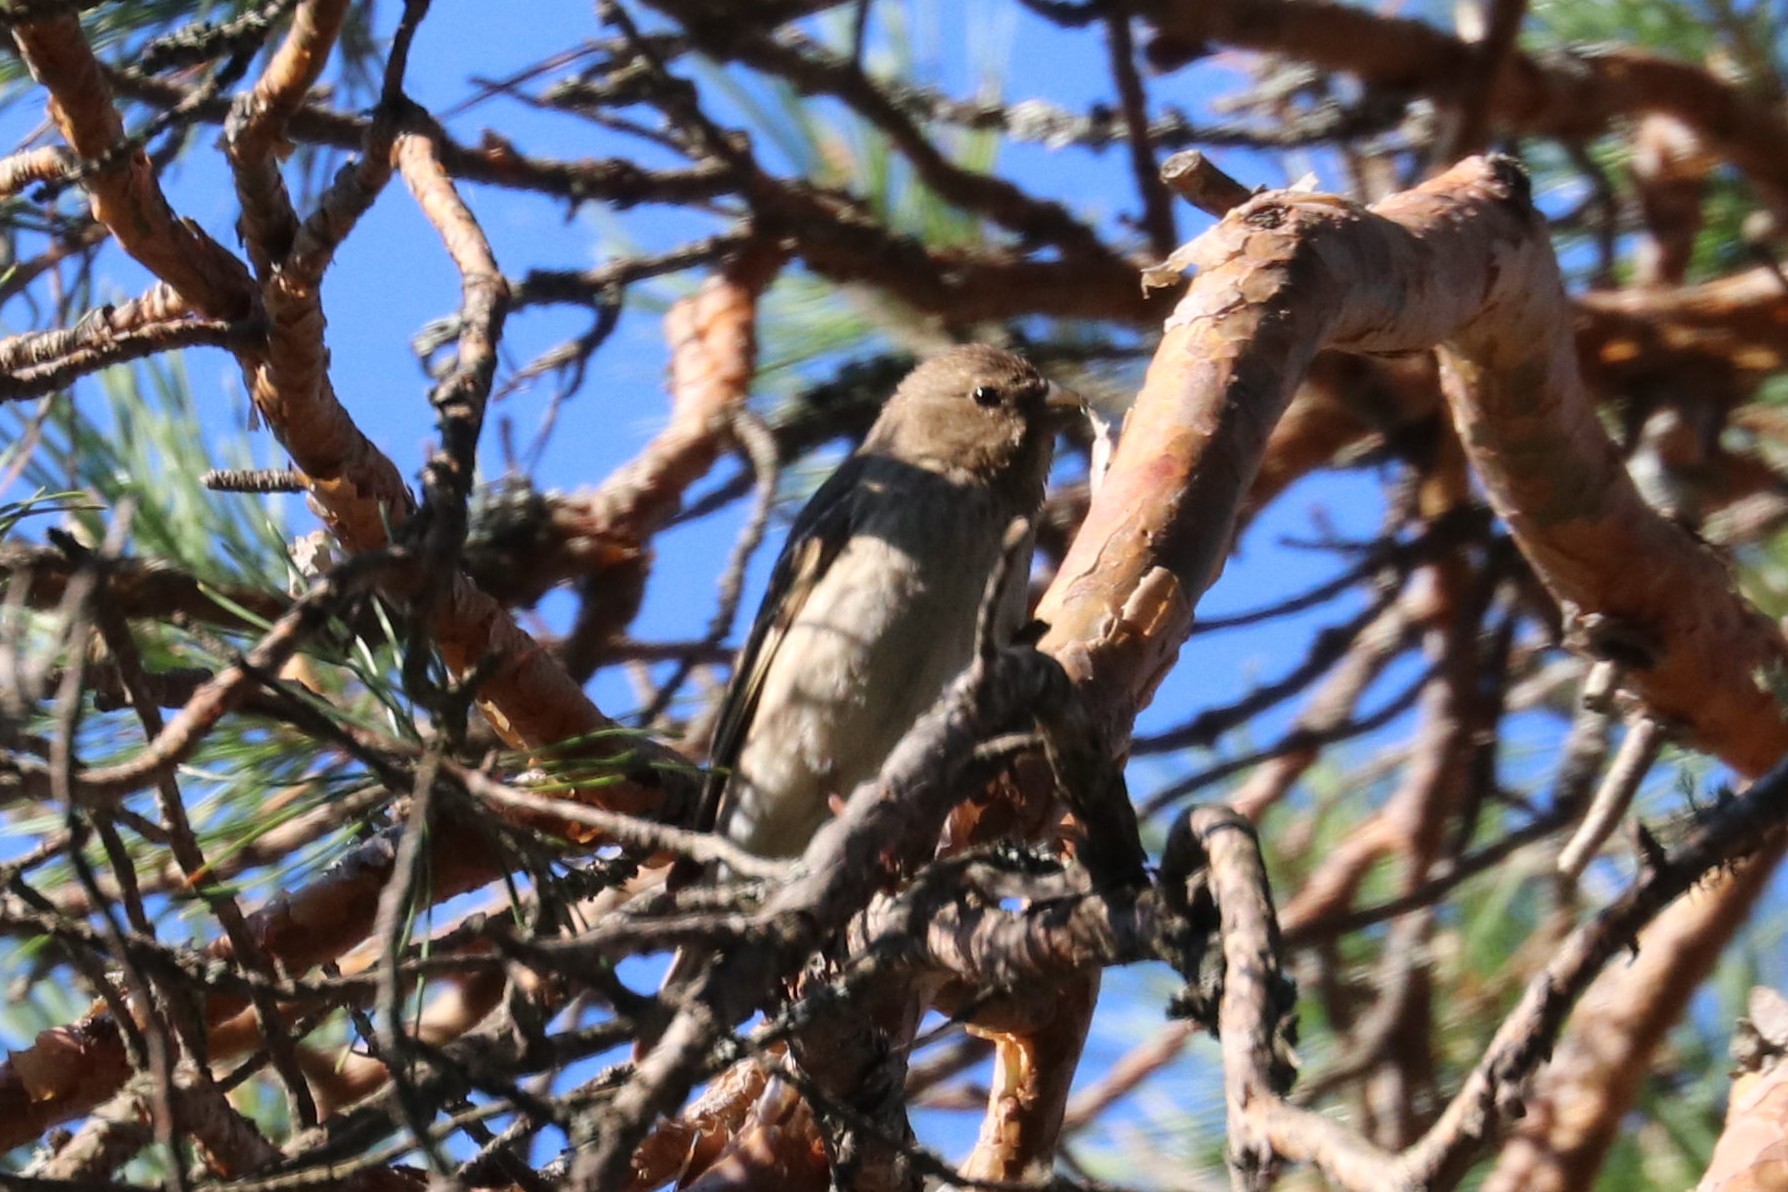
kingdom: Animalia
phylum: Chordata
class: Aves
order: Passeriformes
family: Fringillidae
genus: Carpodacus
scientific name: Carpodacus erythrinus
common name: Common rosefinch
